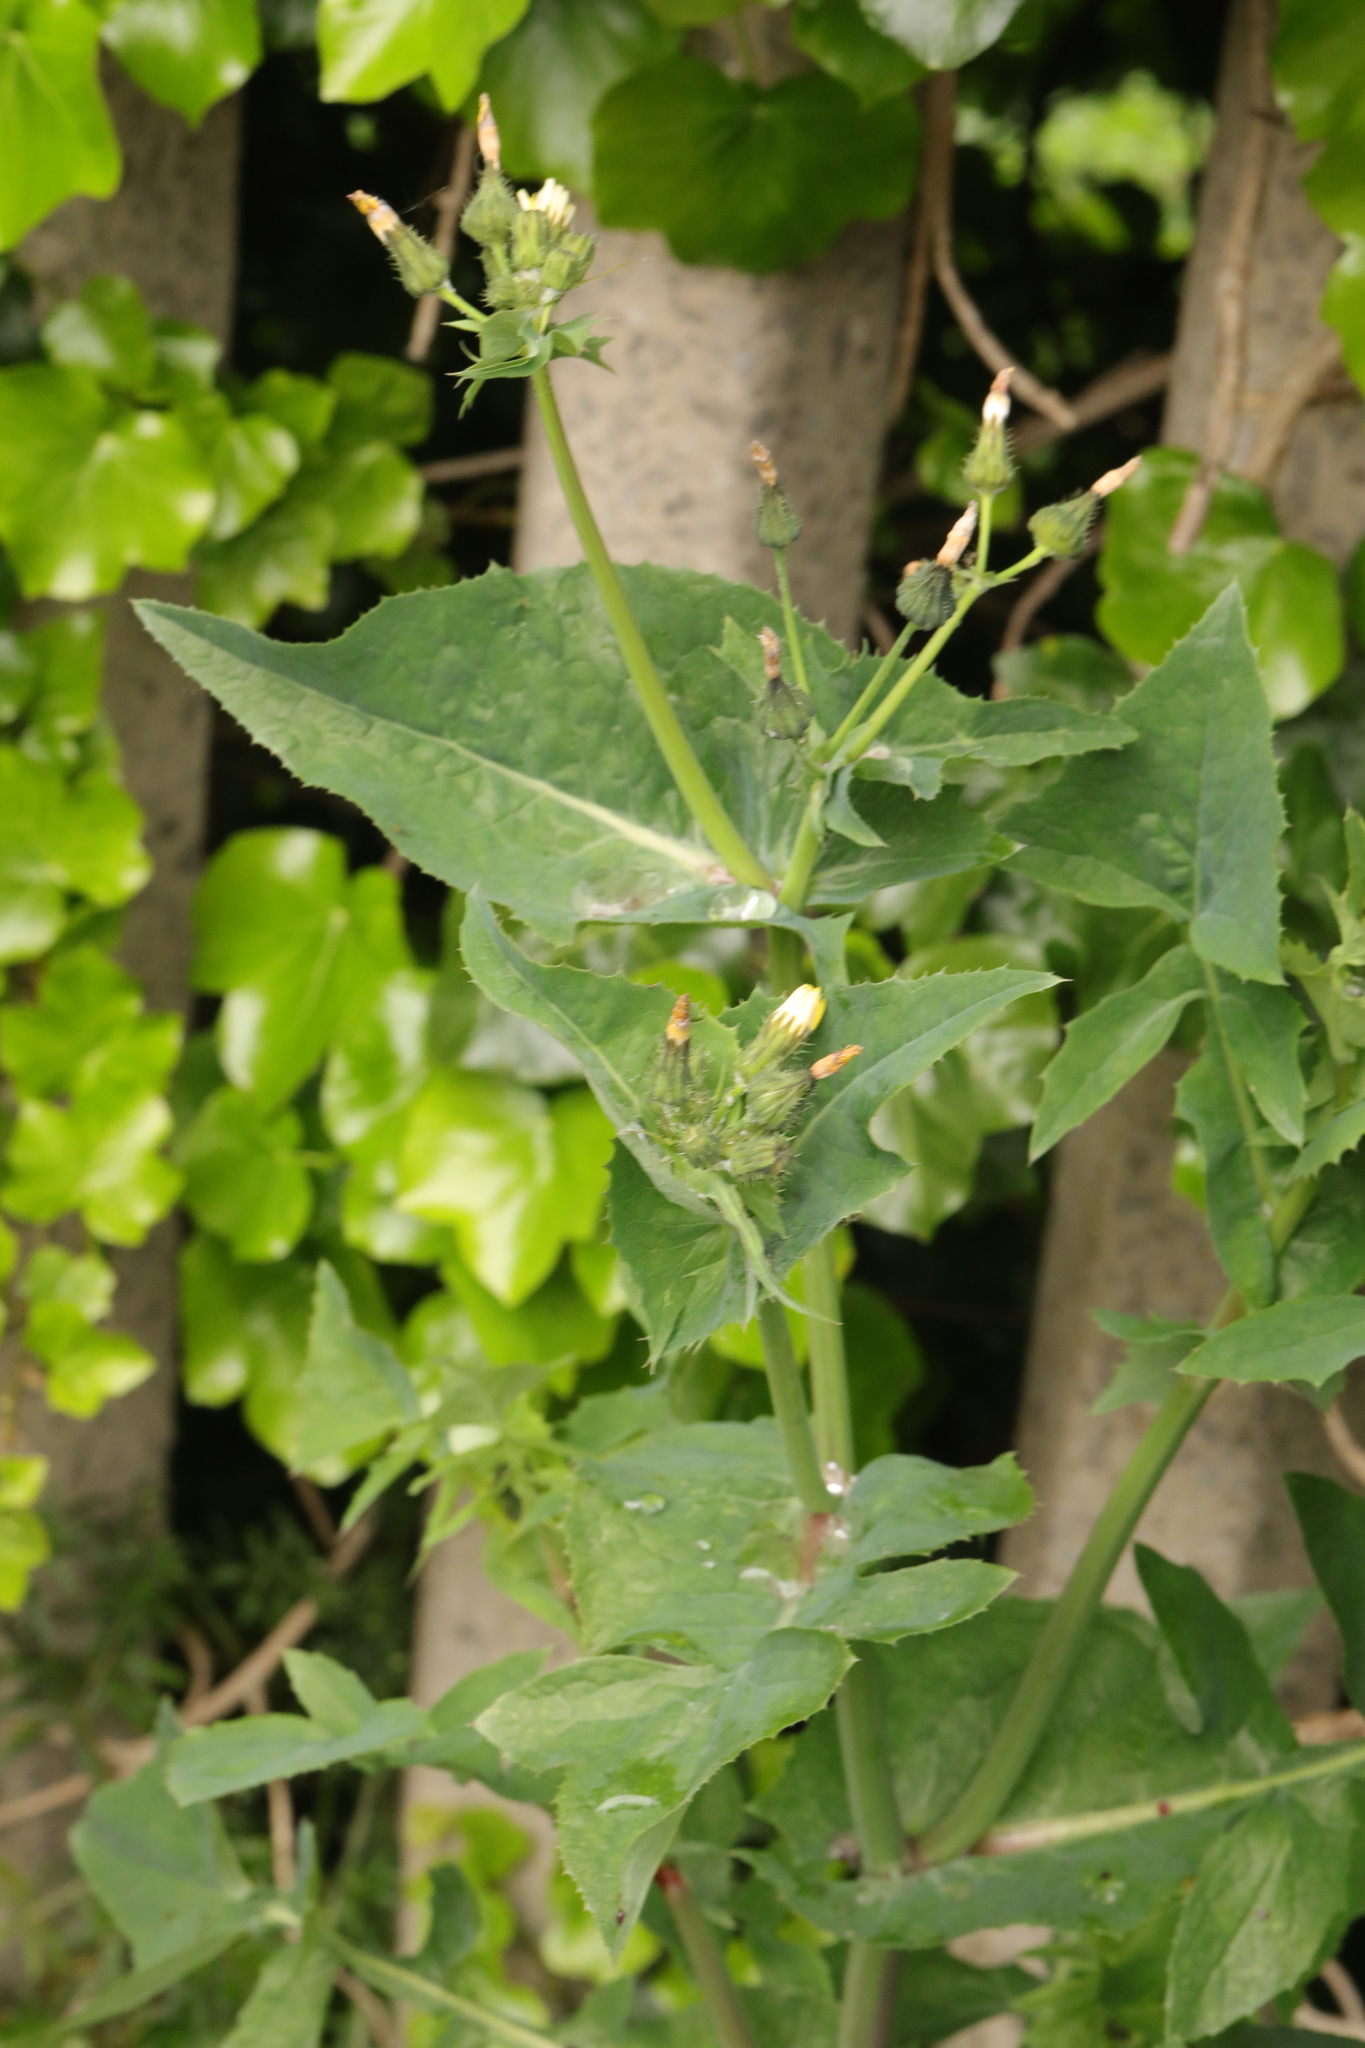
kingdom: Plantae
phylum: Tracheophyta
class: Magnoliopsida
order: Asterales
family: Asteraceae
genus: Sonchus
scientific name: Sonchus oleraceus
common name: Common sowthistle
